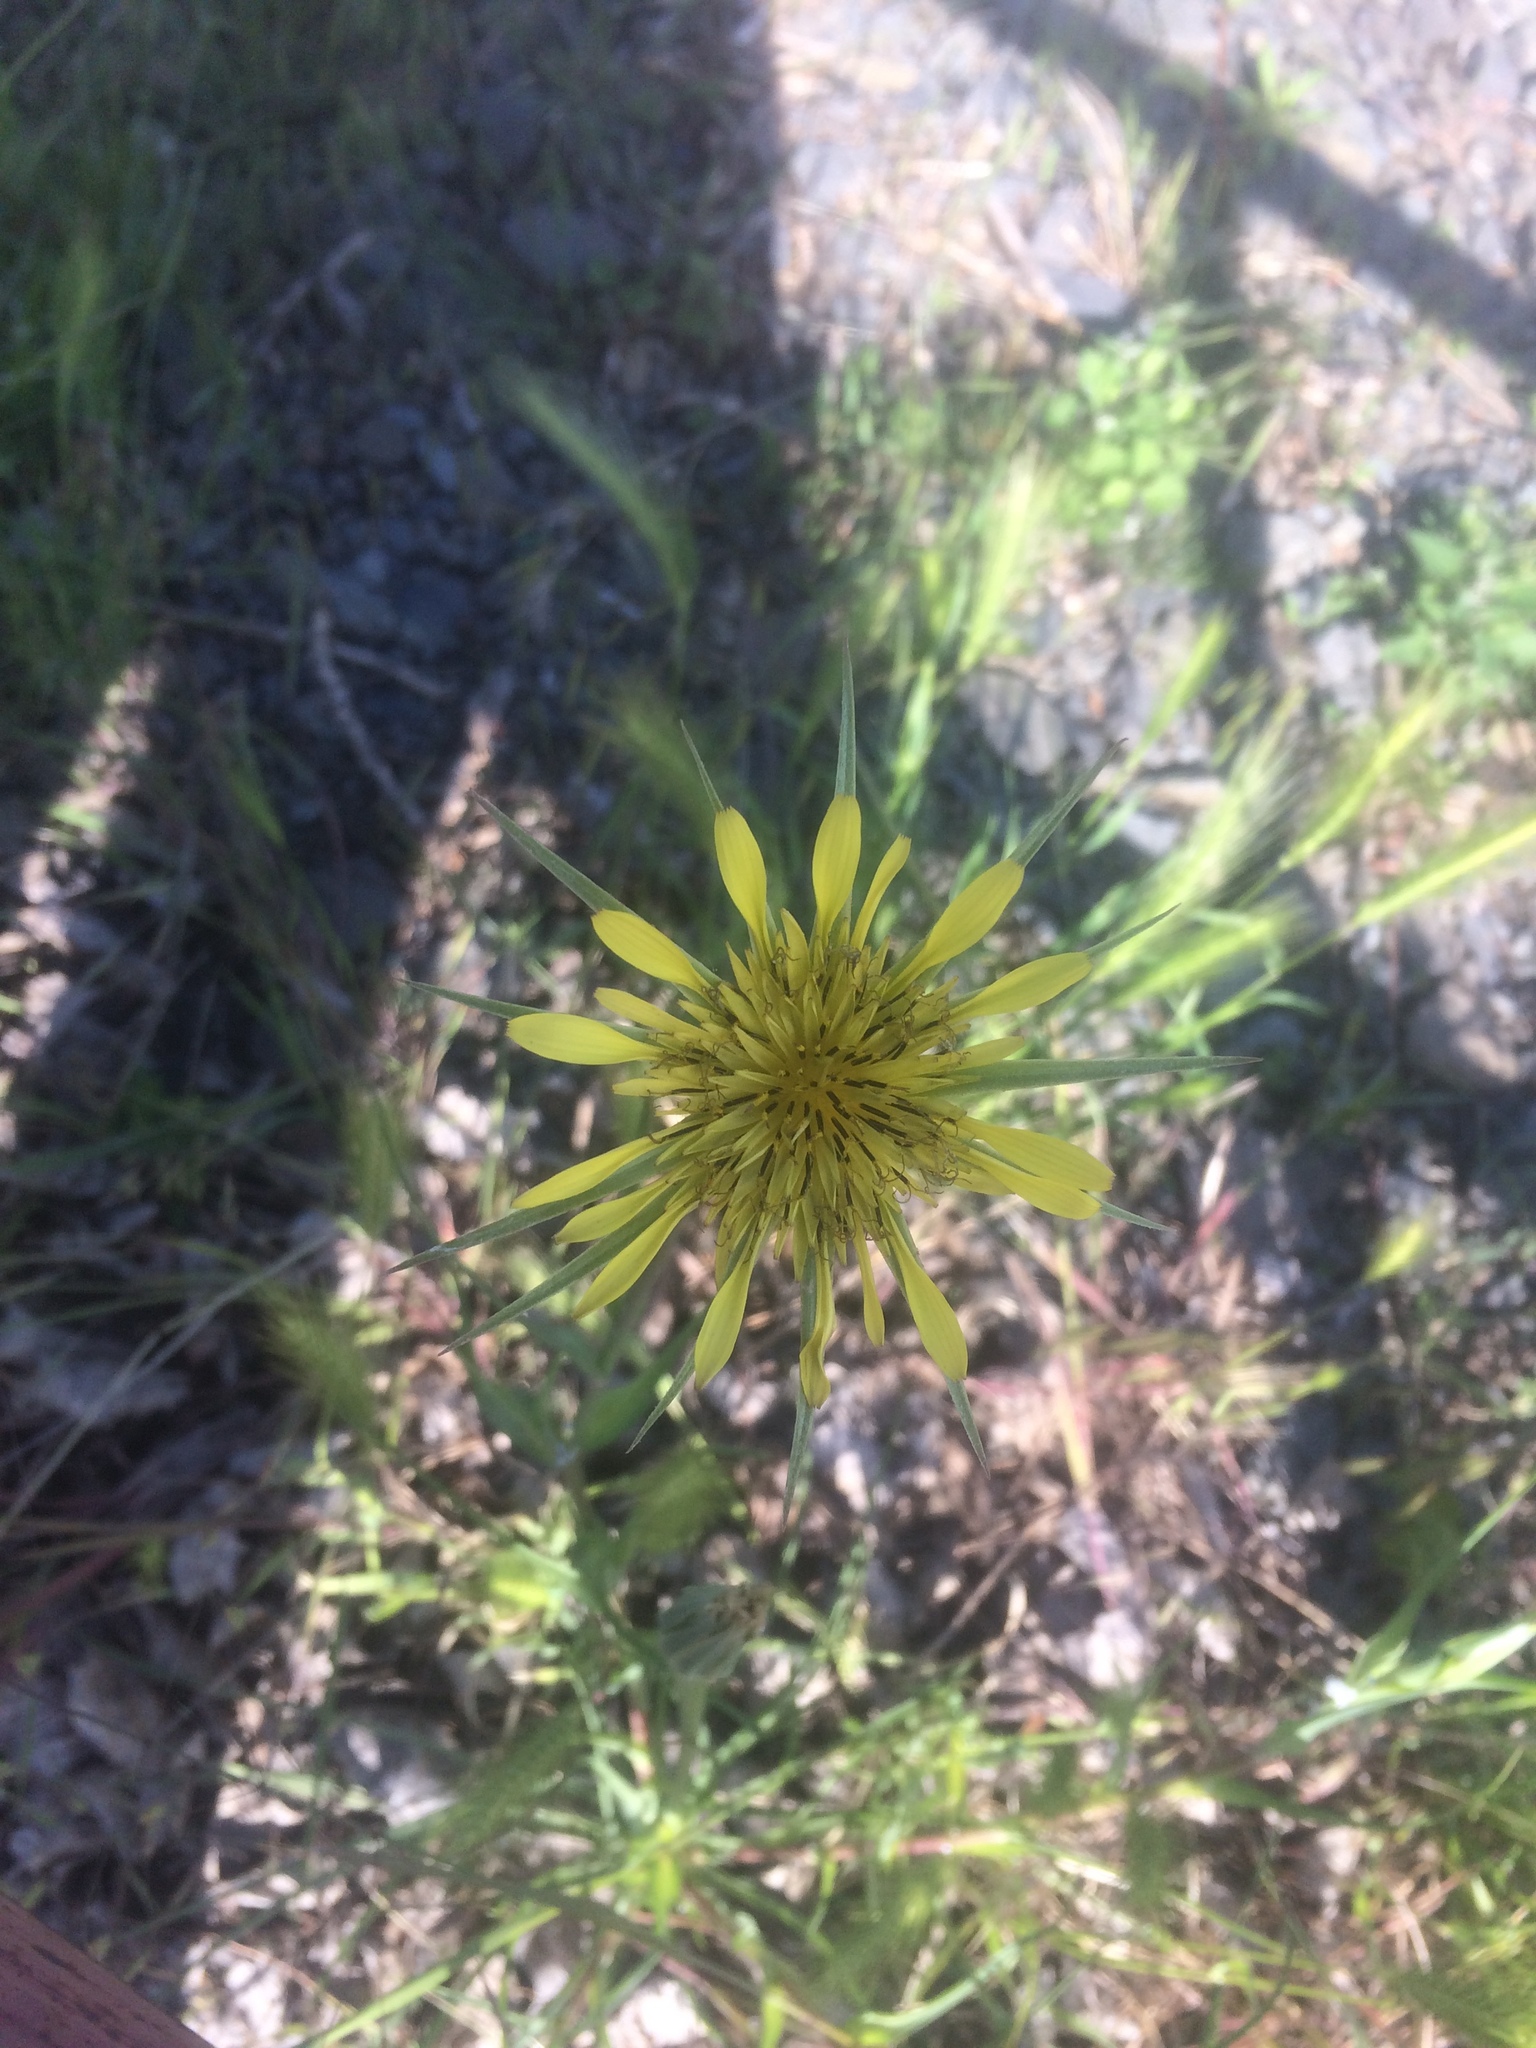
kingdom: Plantae
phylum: Tracheophyta
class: Magnoliopsida
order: Asterales
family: Asteraceae
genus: Tragopogon
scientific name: Tragopogon dubius
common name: Yellow salsify
